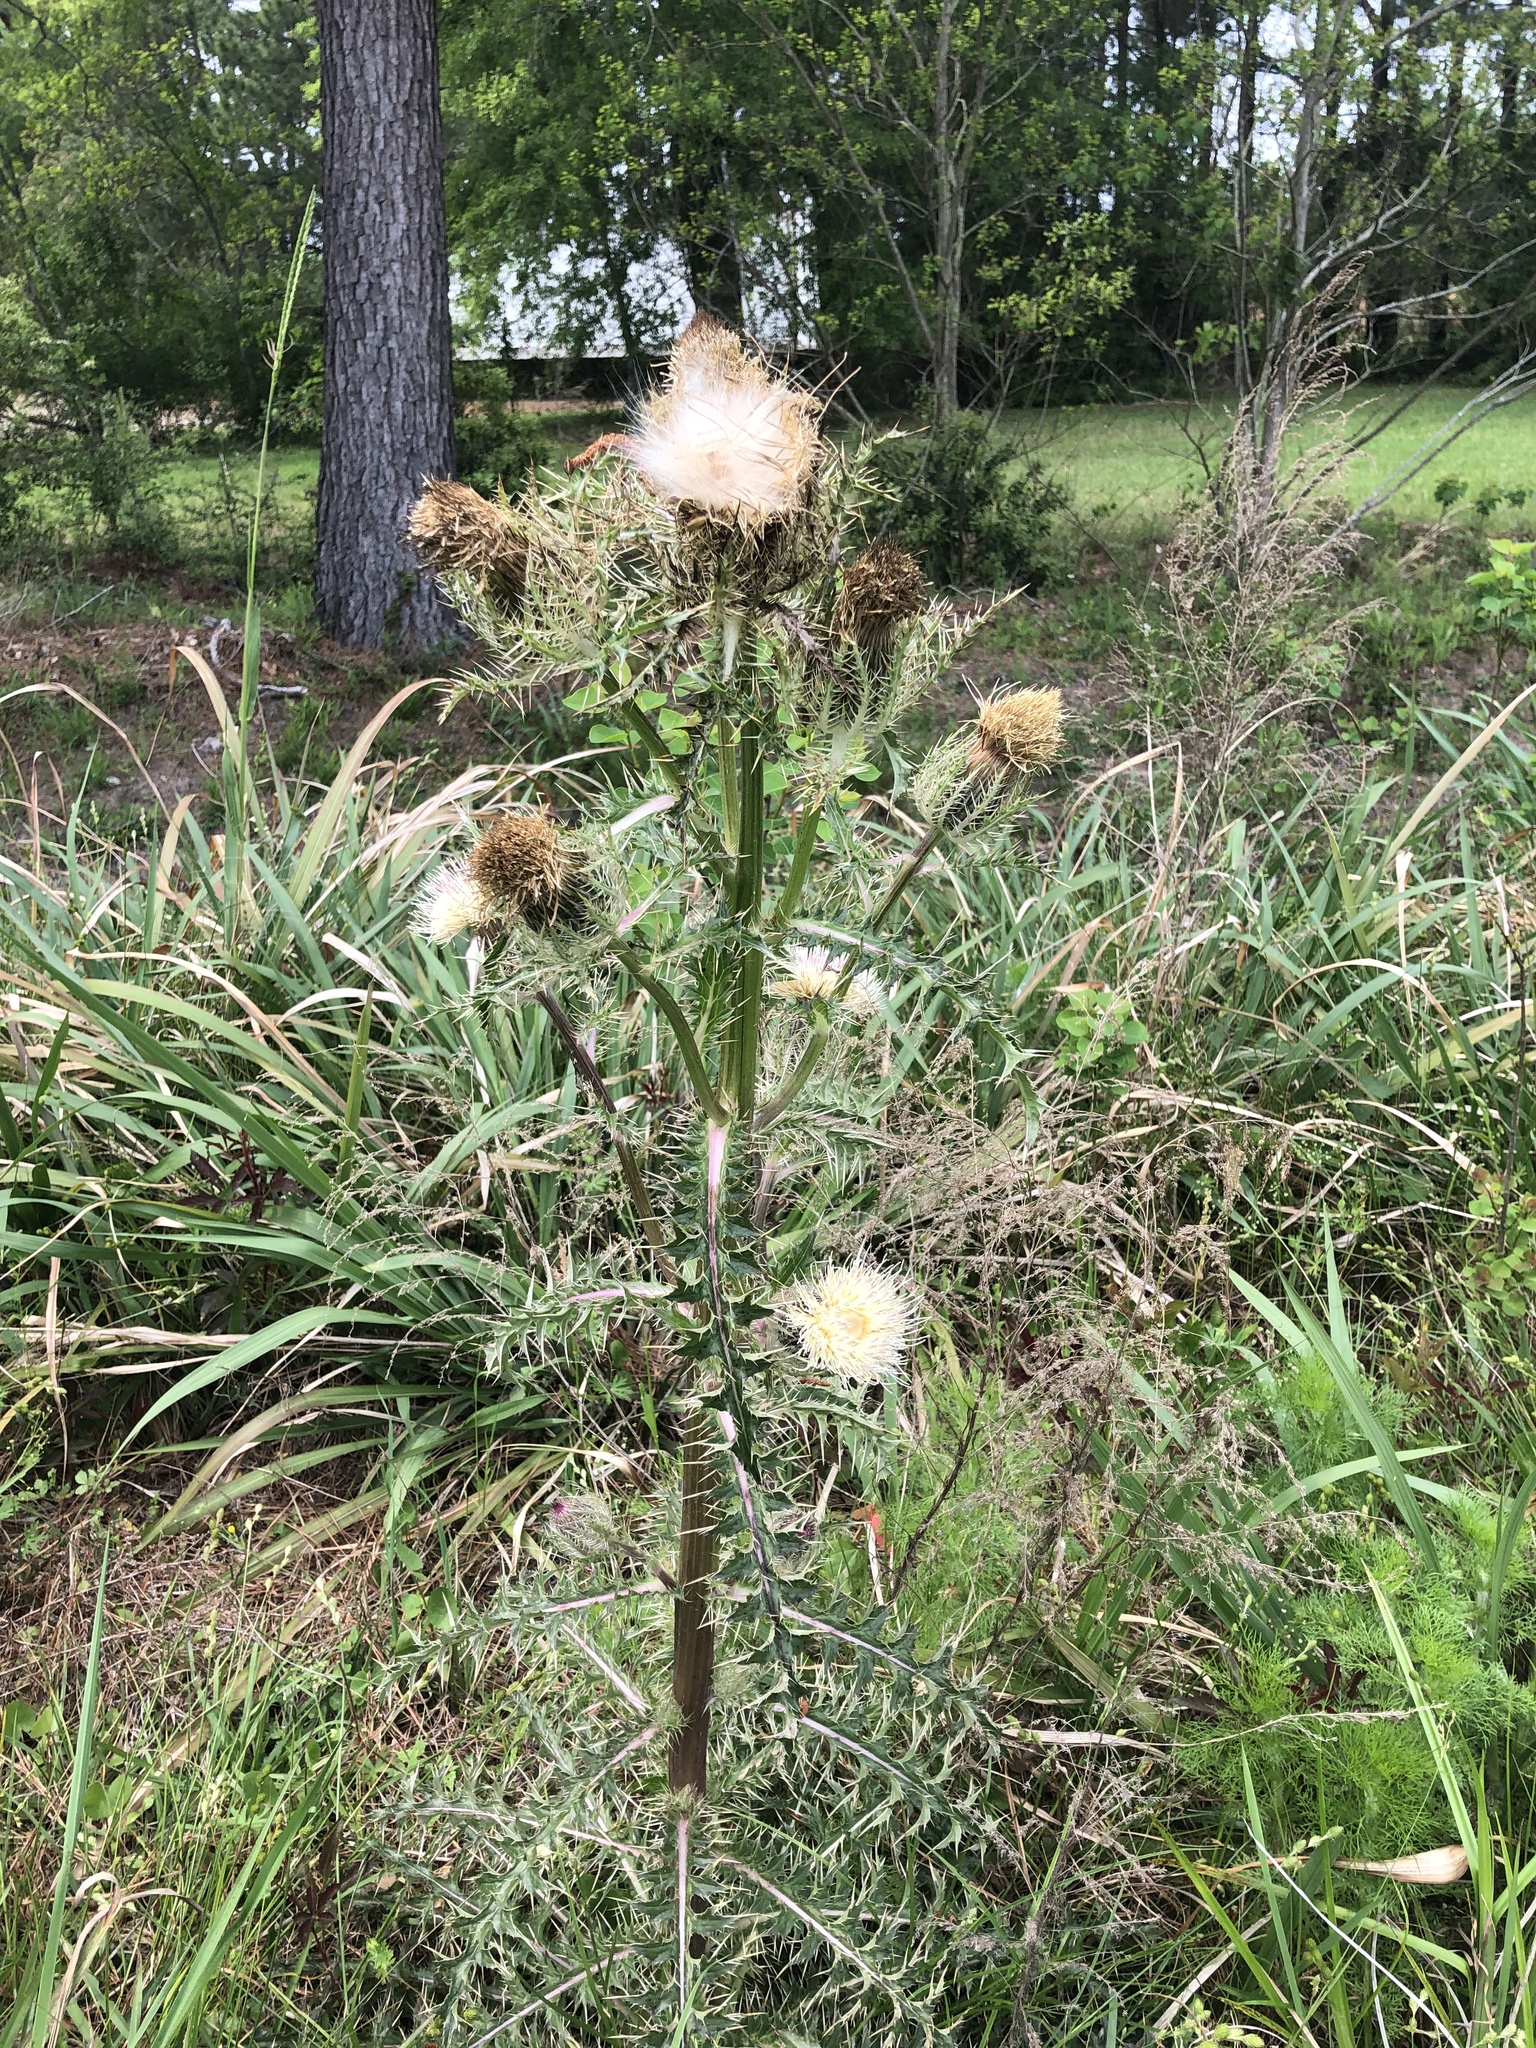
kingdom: Plantae
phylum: Tracheophyta
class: Magnoliopsida
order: Asterales
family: Asteraceae
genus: Cirsium
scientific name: Cirsium horridulum
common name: Bristly thistle
